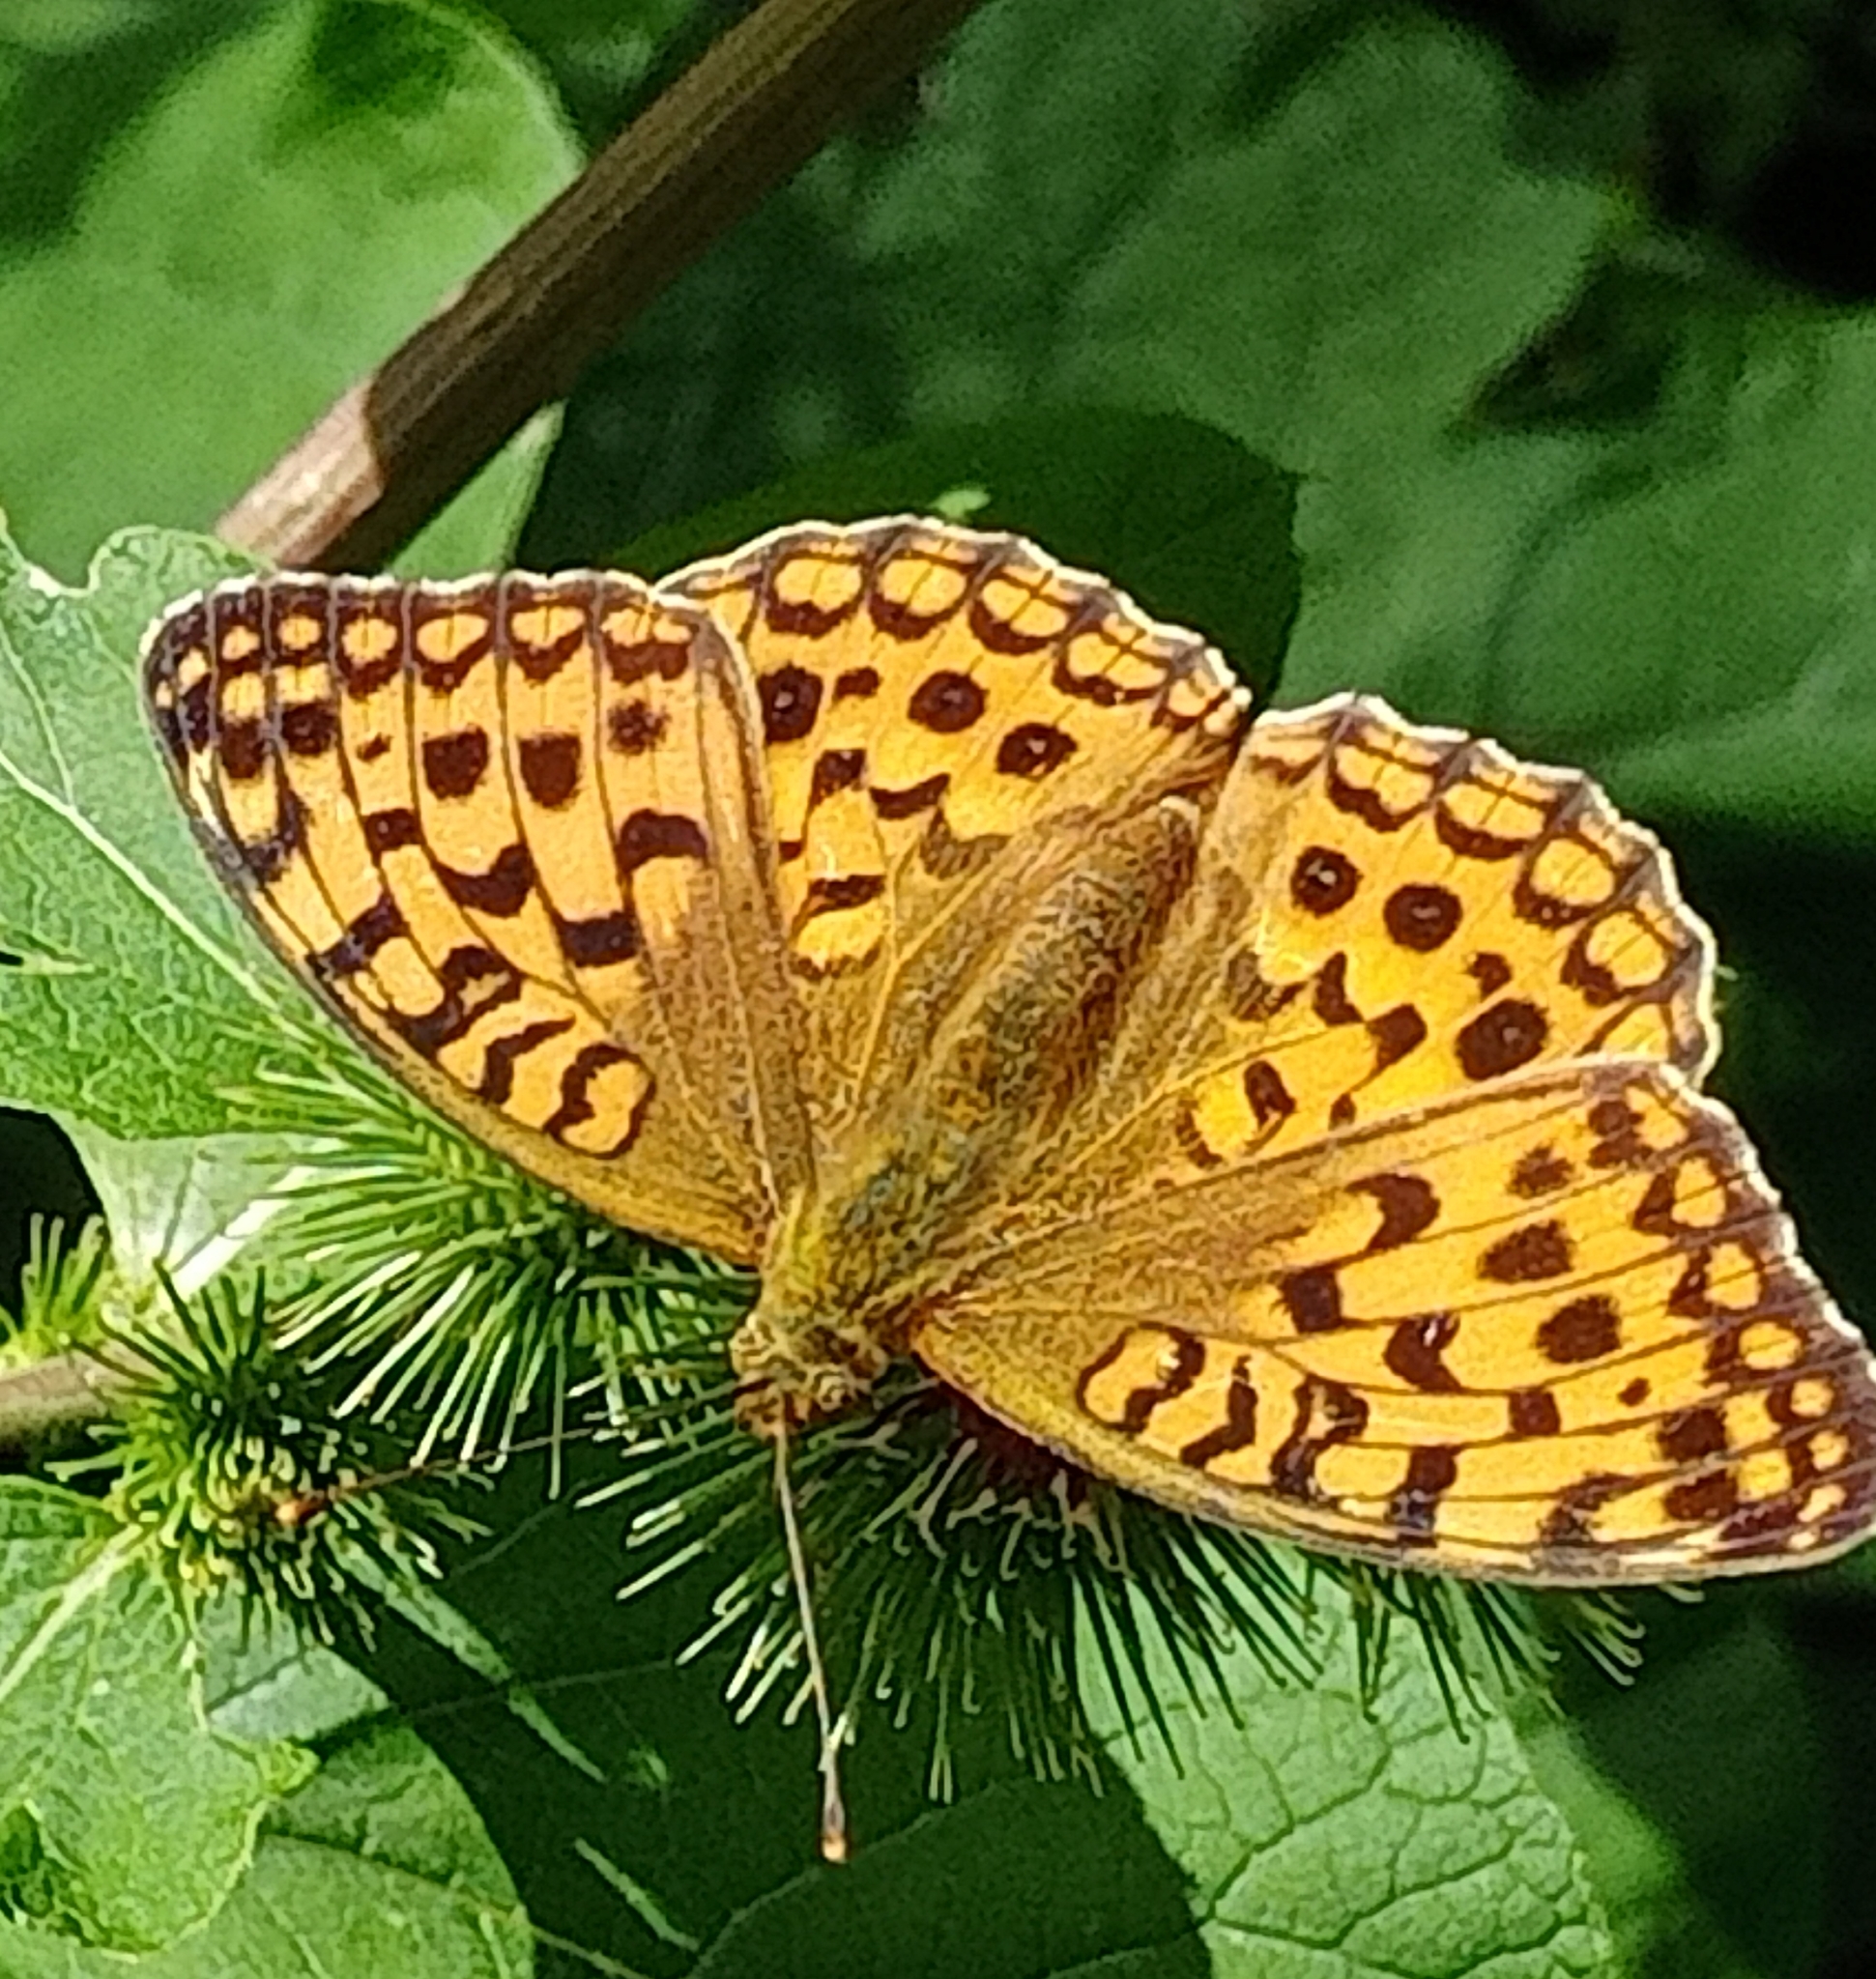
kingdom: Animalia
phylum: Arthropoda
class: Insecta
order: Lepidoptera
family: Nymphalidae
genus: Fabriciana
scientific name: Fabriciana adippe
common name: High brown fritillary
